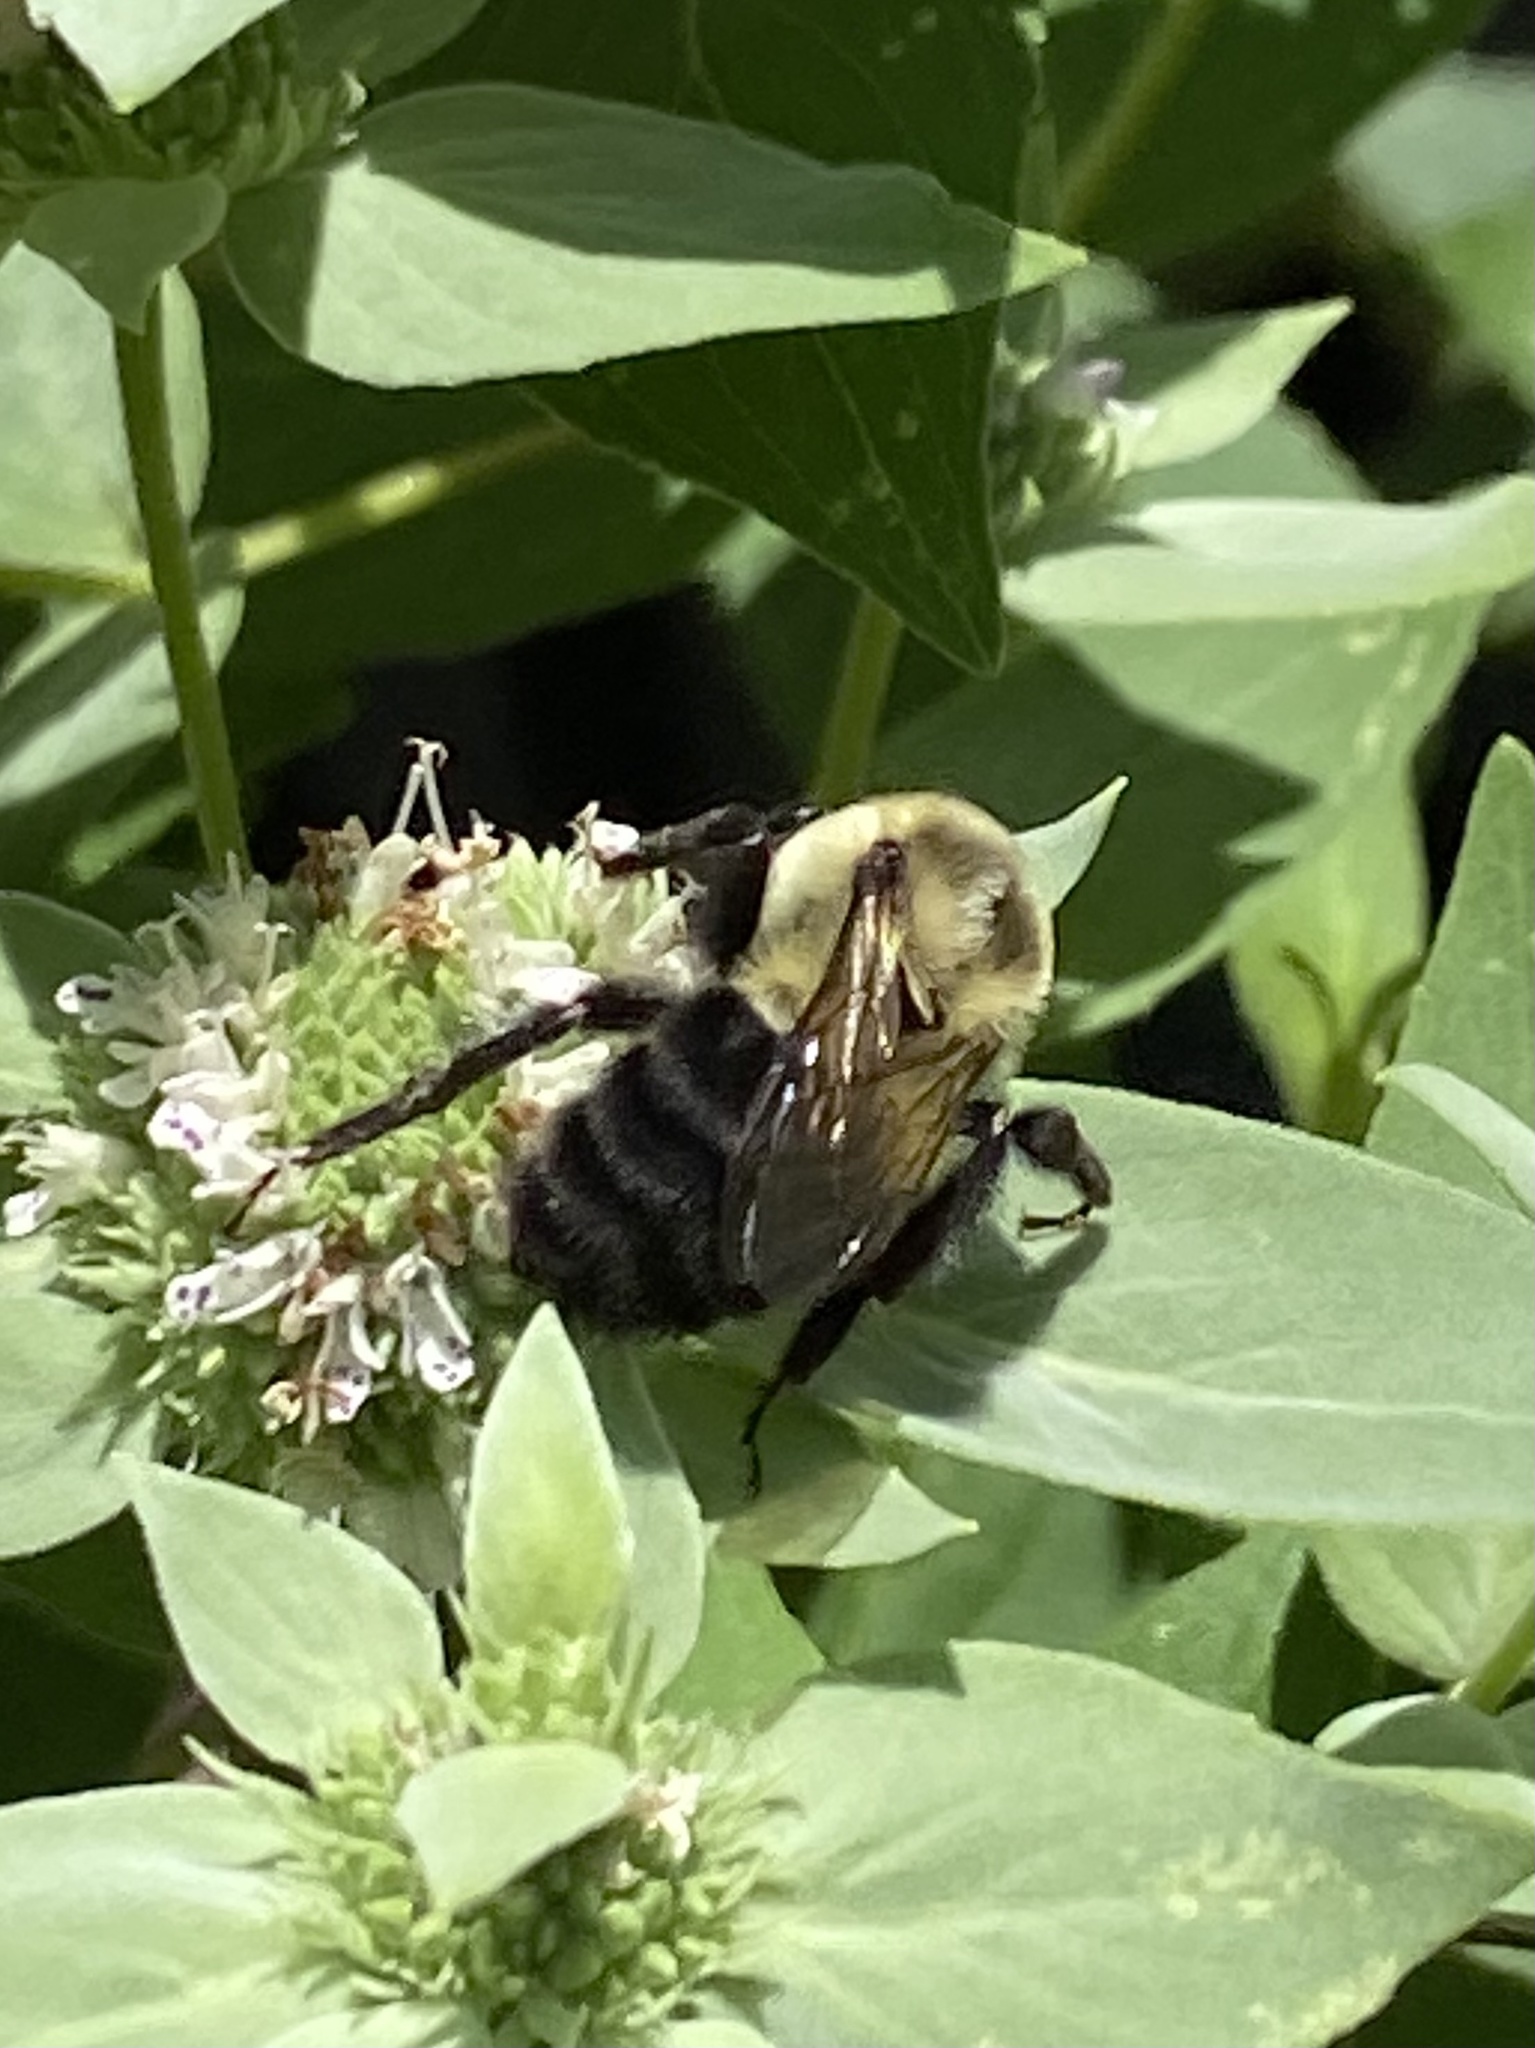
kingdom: Animalia
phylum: Arthropoda
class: Insecta
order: Hymenoptera
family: Apidae
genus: Bombus
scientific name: Bombus impatiens
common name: Common eastern bumble bee
